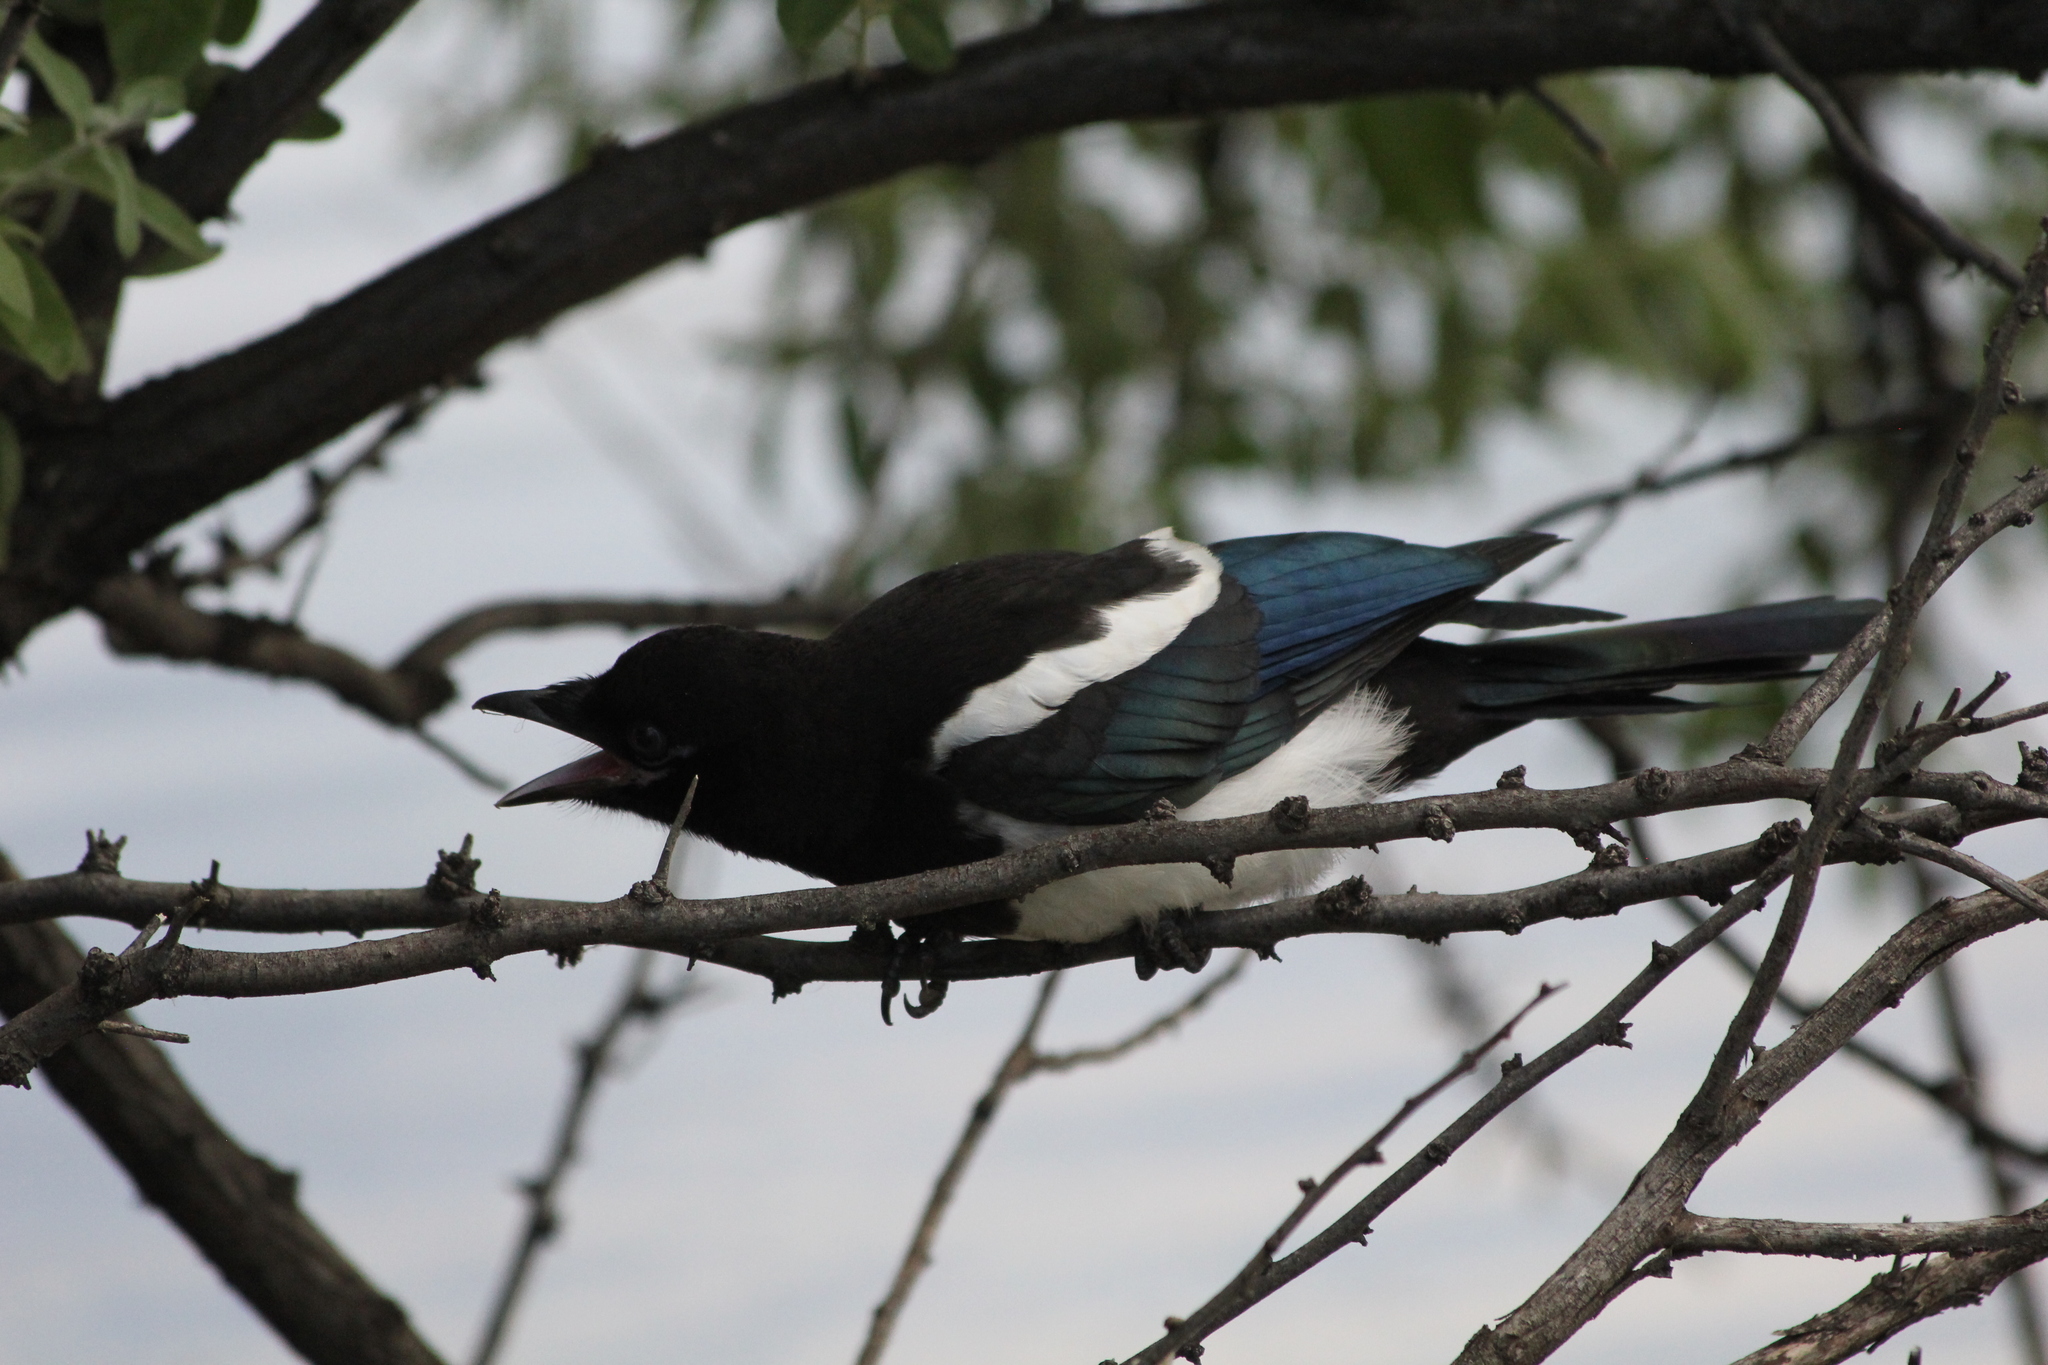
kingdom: Animalia
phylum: Chordata
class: Aves
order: Passeriformes
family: Corvidae
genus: Pica
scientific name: Pica hudsonia
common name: Black-billed magpie
